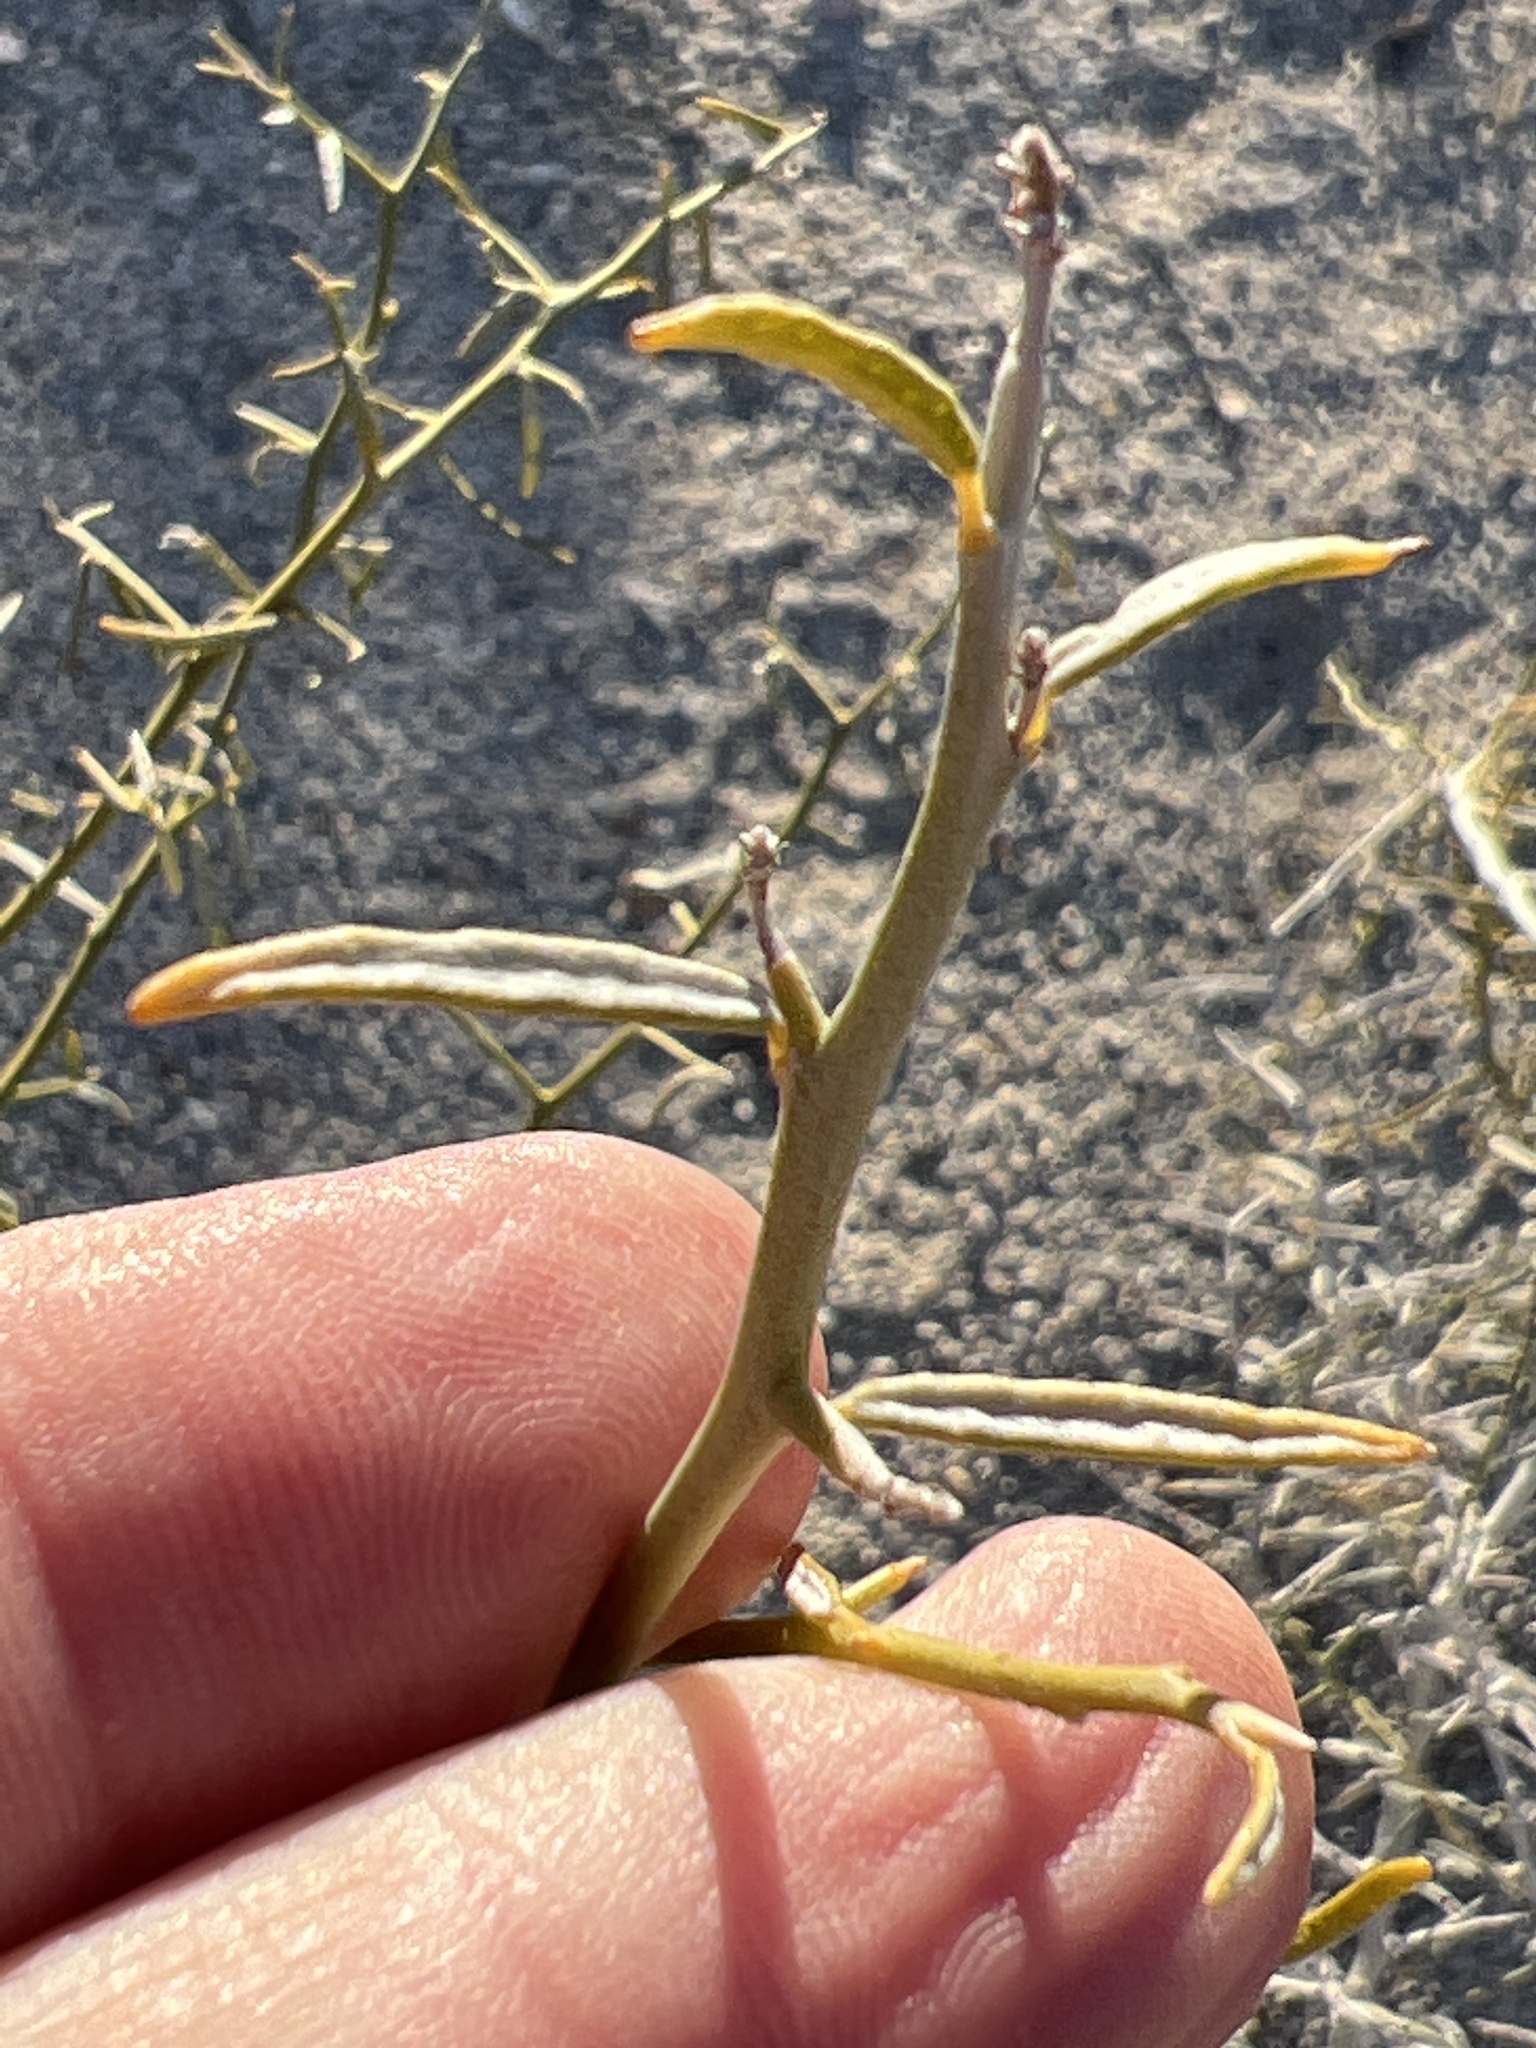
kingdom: Plantae
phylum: Tracheophyta
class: Magnoliopsida
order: Fabales
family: Fabaceae
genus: Psorothamnus
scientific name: Psorothamnus schottii
